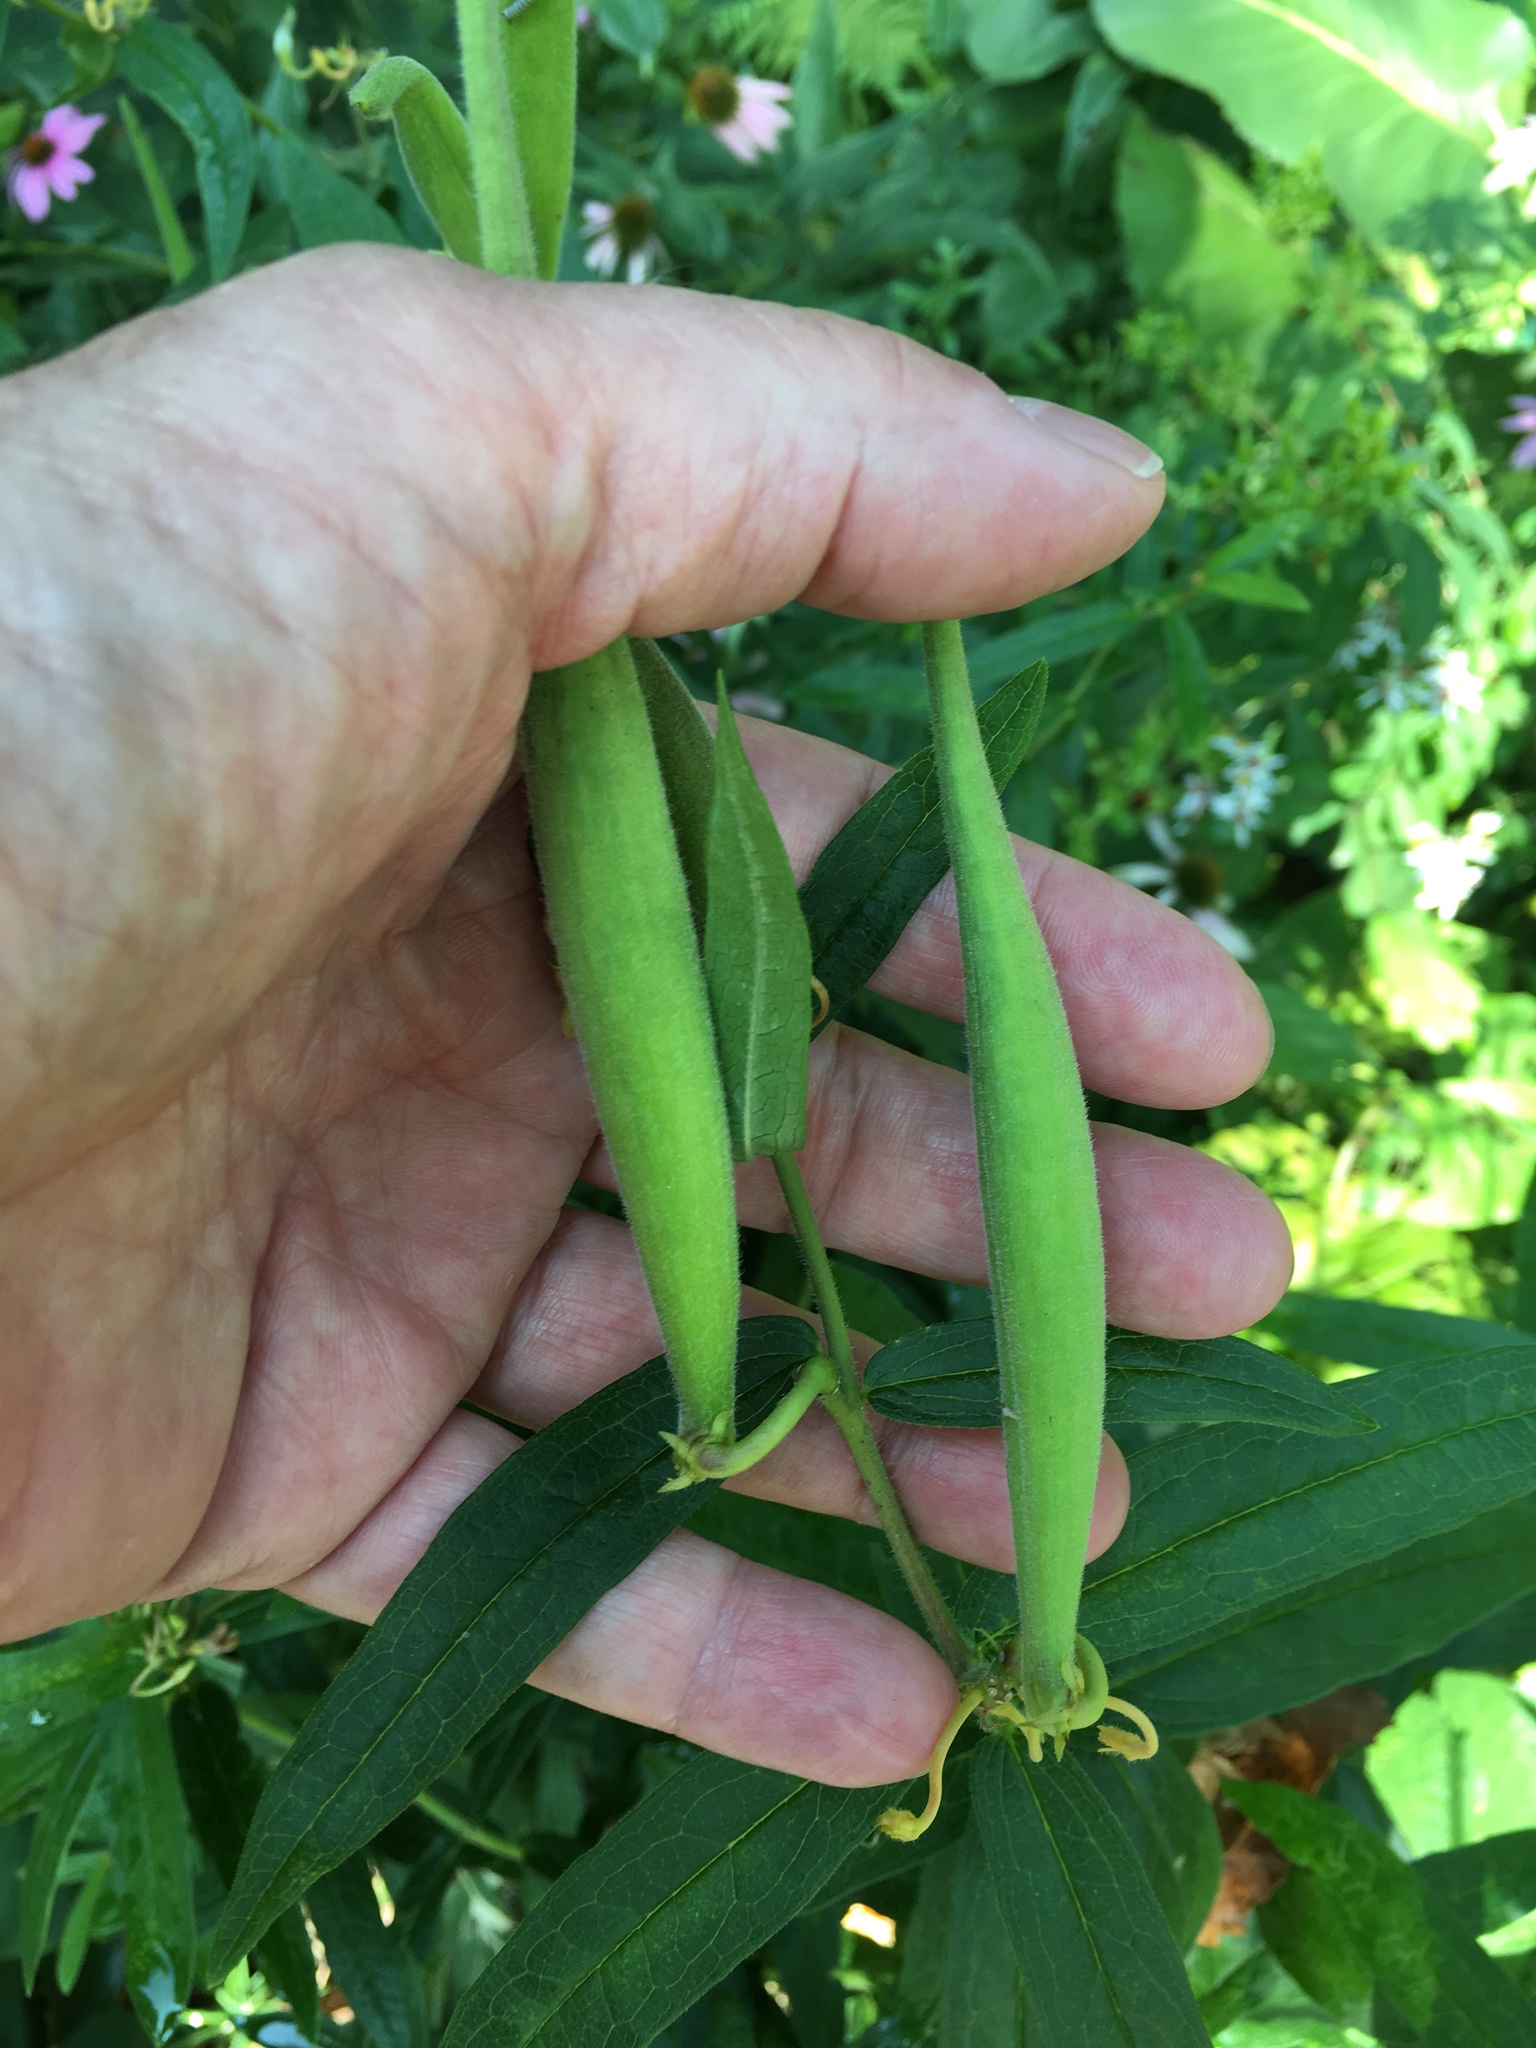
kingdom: Plantae
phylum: Tracheophyta
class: Magnoliopsida
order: Gentianales
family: Apocynaceae
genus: Asclepias
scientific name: Asclepias tuberosa
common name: Butterfly milkweed
